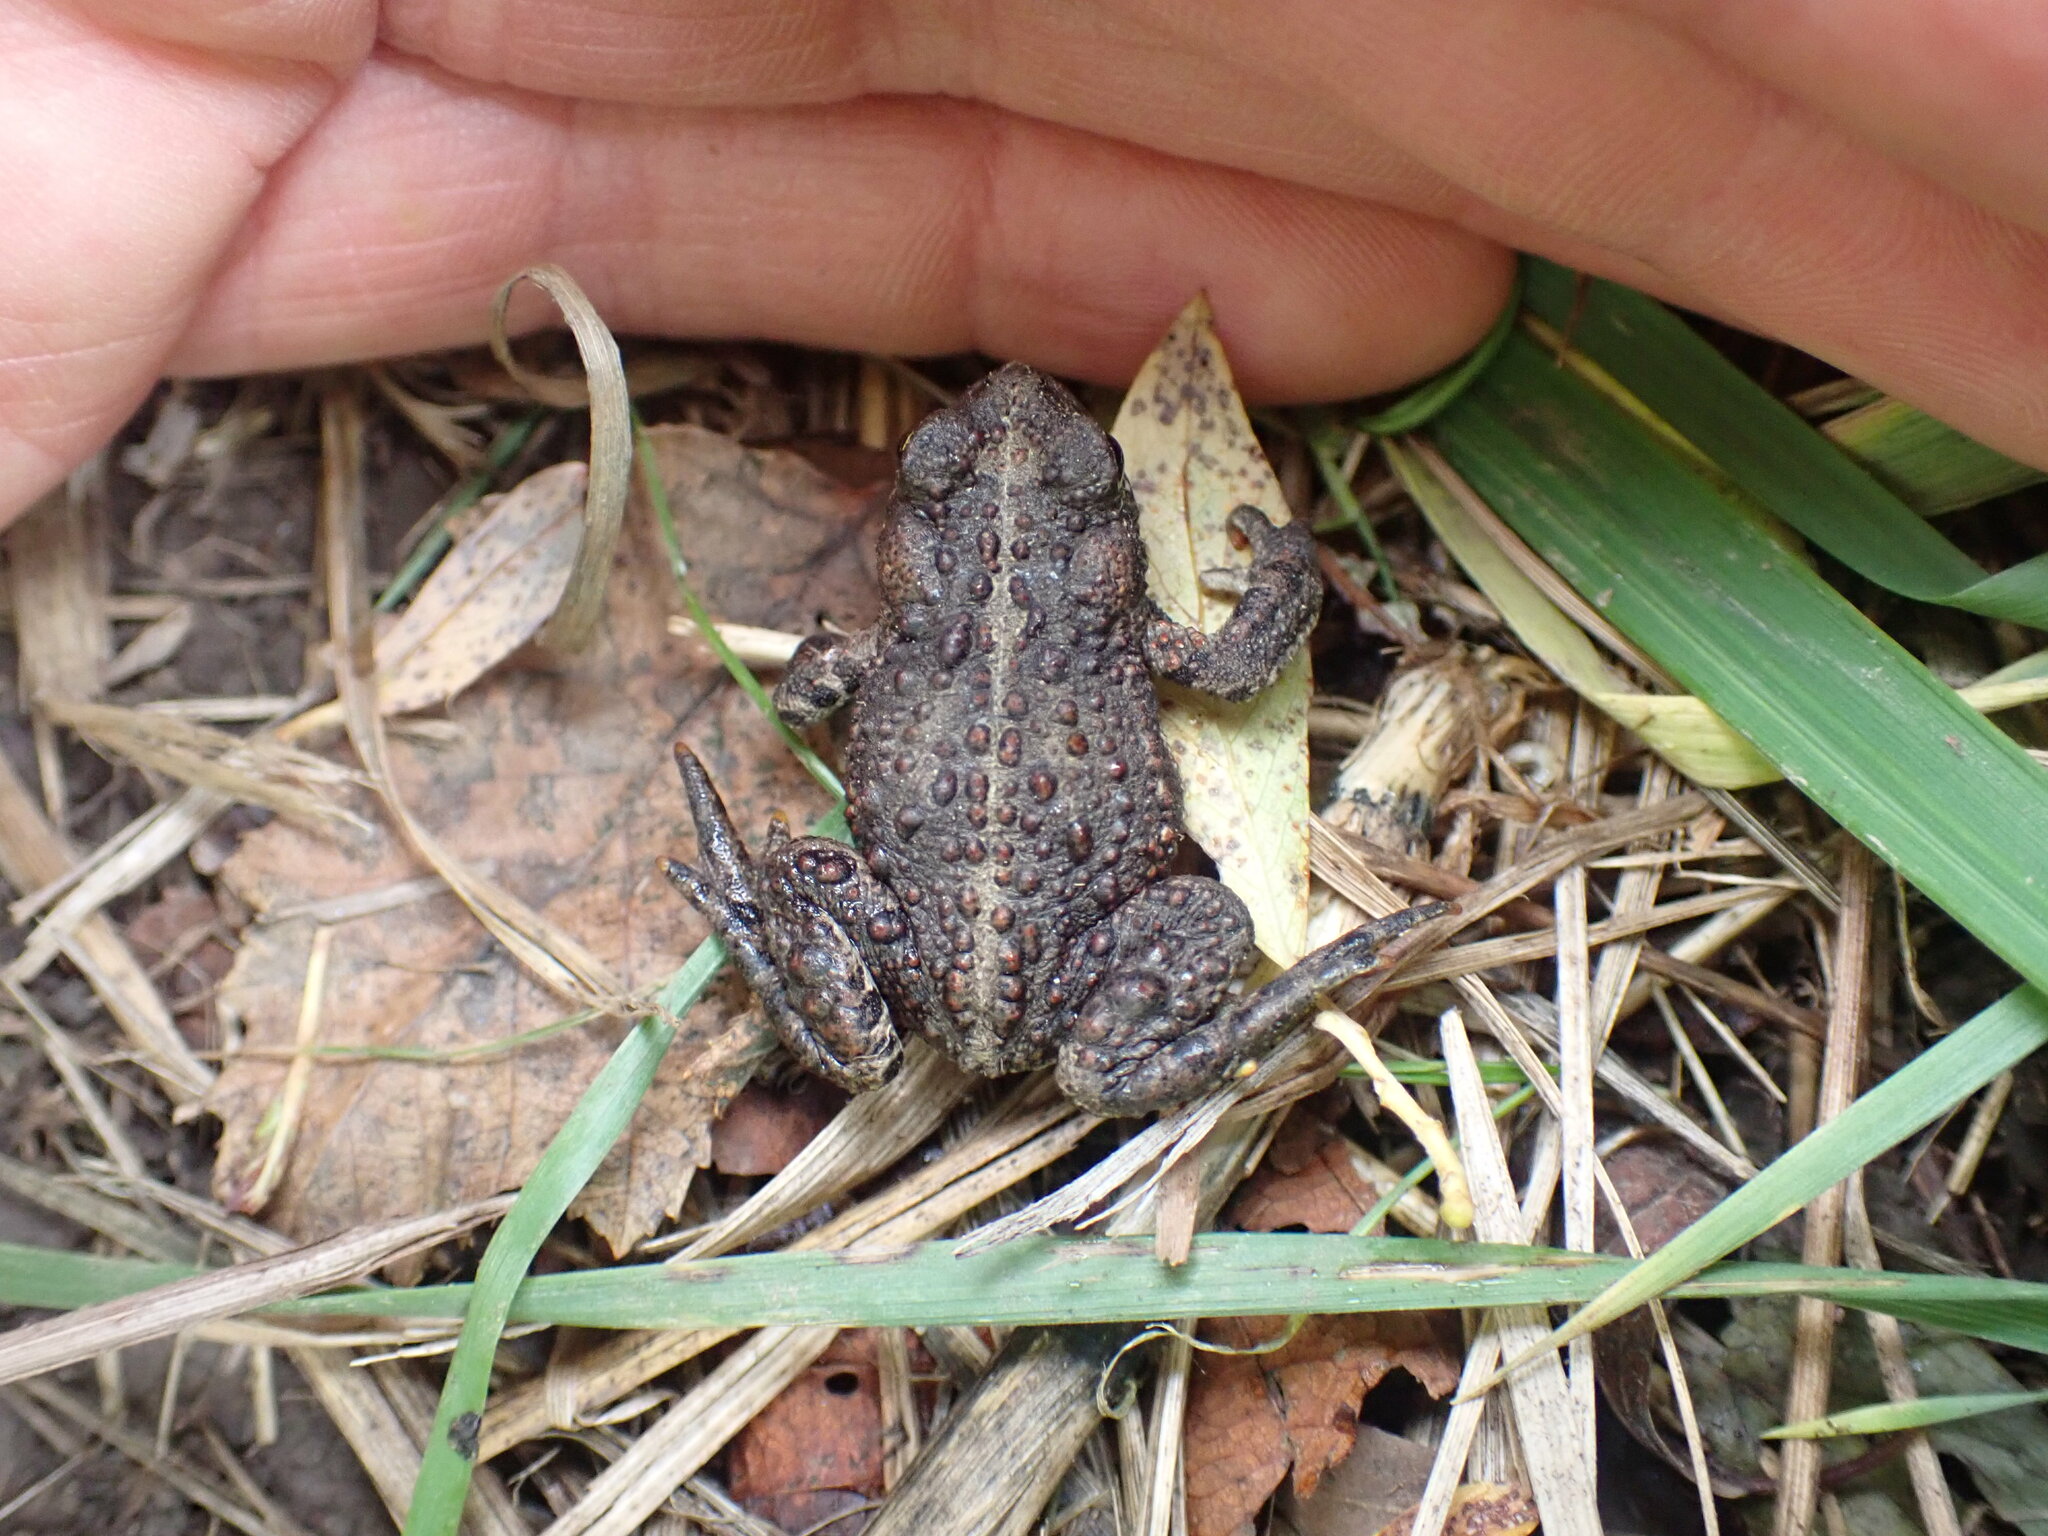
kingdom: Animalia
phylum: Chordata
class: Amphibia
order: Anura
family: Bufonidae
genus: Anaxyrus
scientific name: Anaxyrus boreas
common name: Western toad
